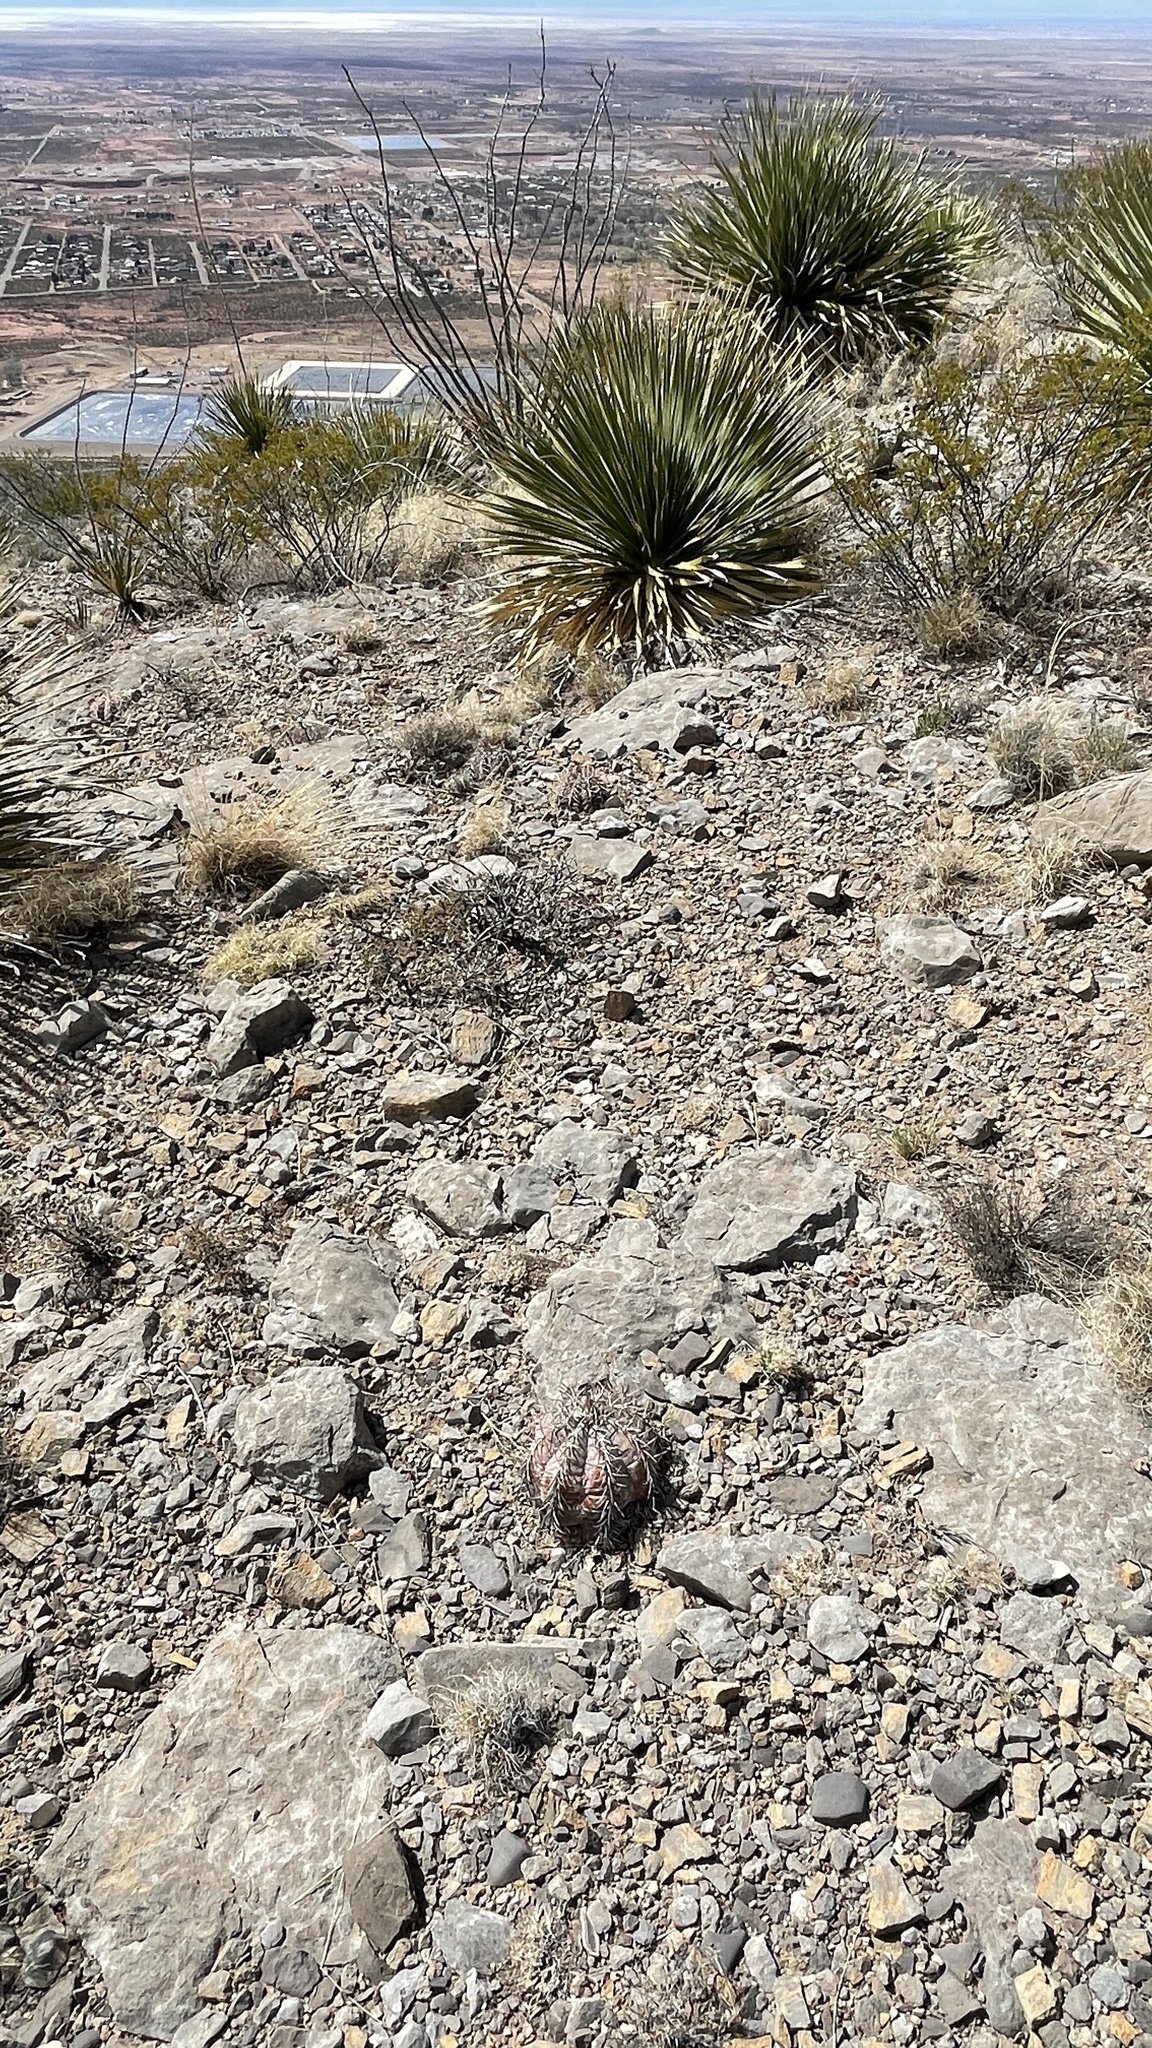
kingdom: Plantae
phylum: Tracheophyta
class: Magnoliopsida
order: Caryophyllales
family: Cactaceae
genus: Echinocactus
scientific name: Echinocactus horizonthalonius
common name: Devilshead
